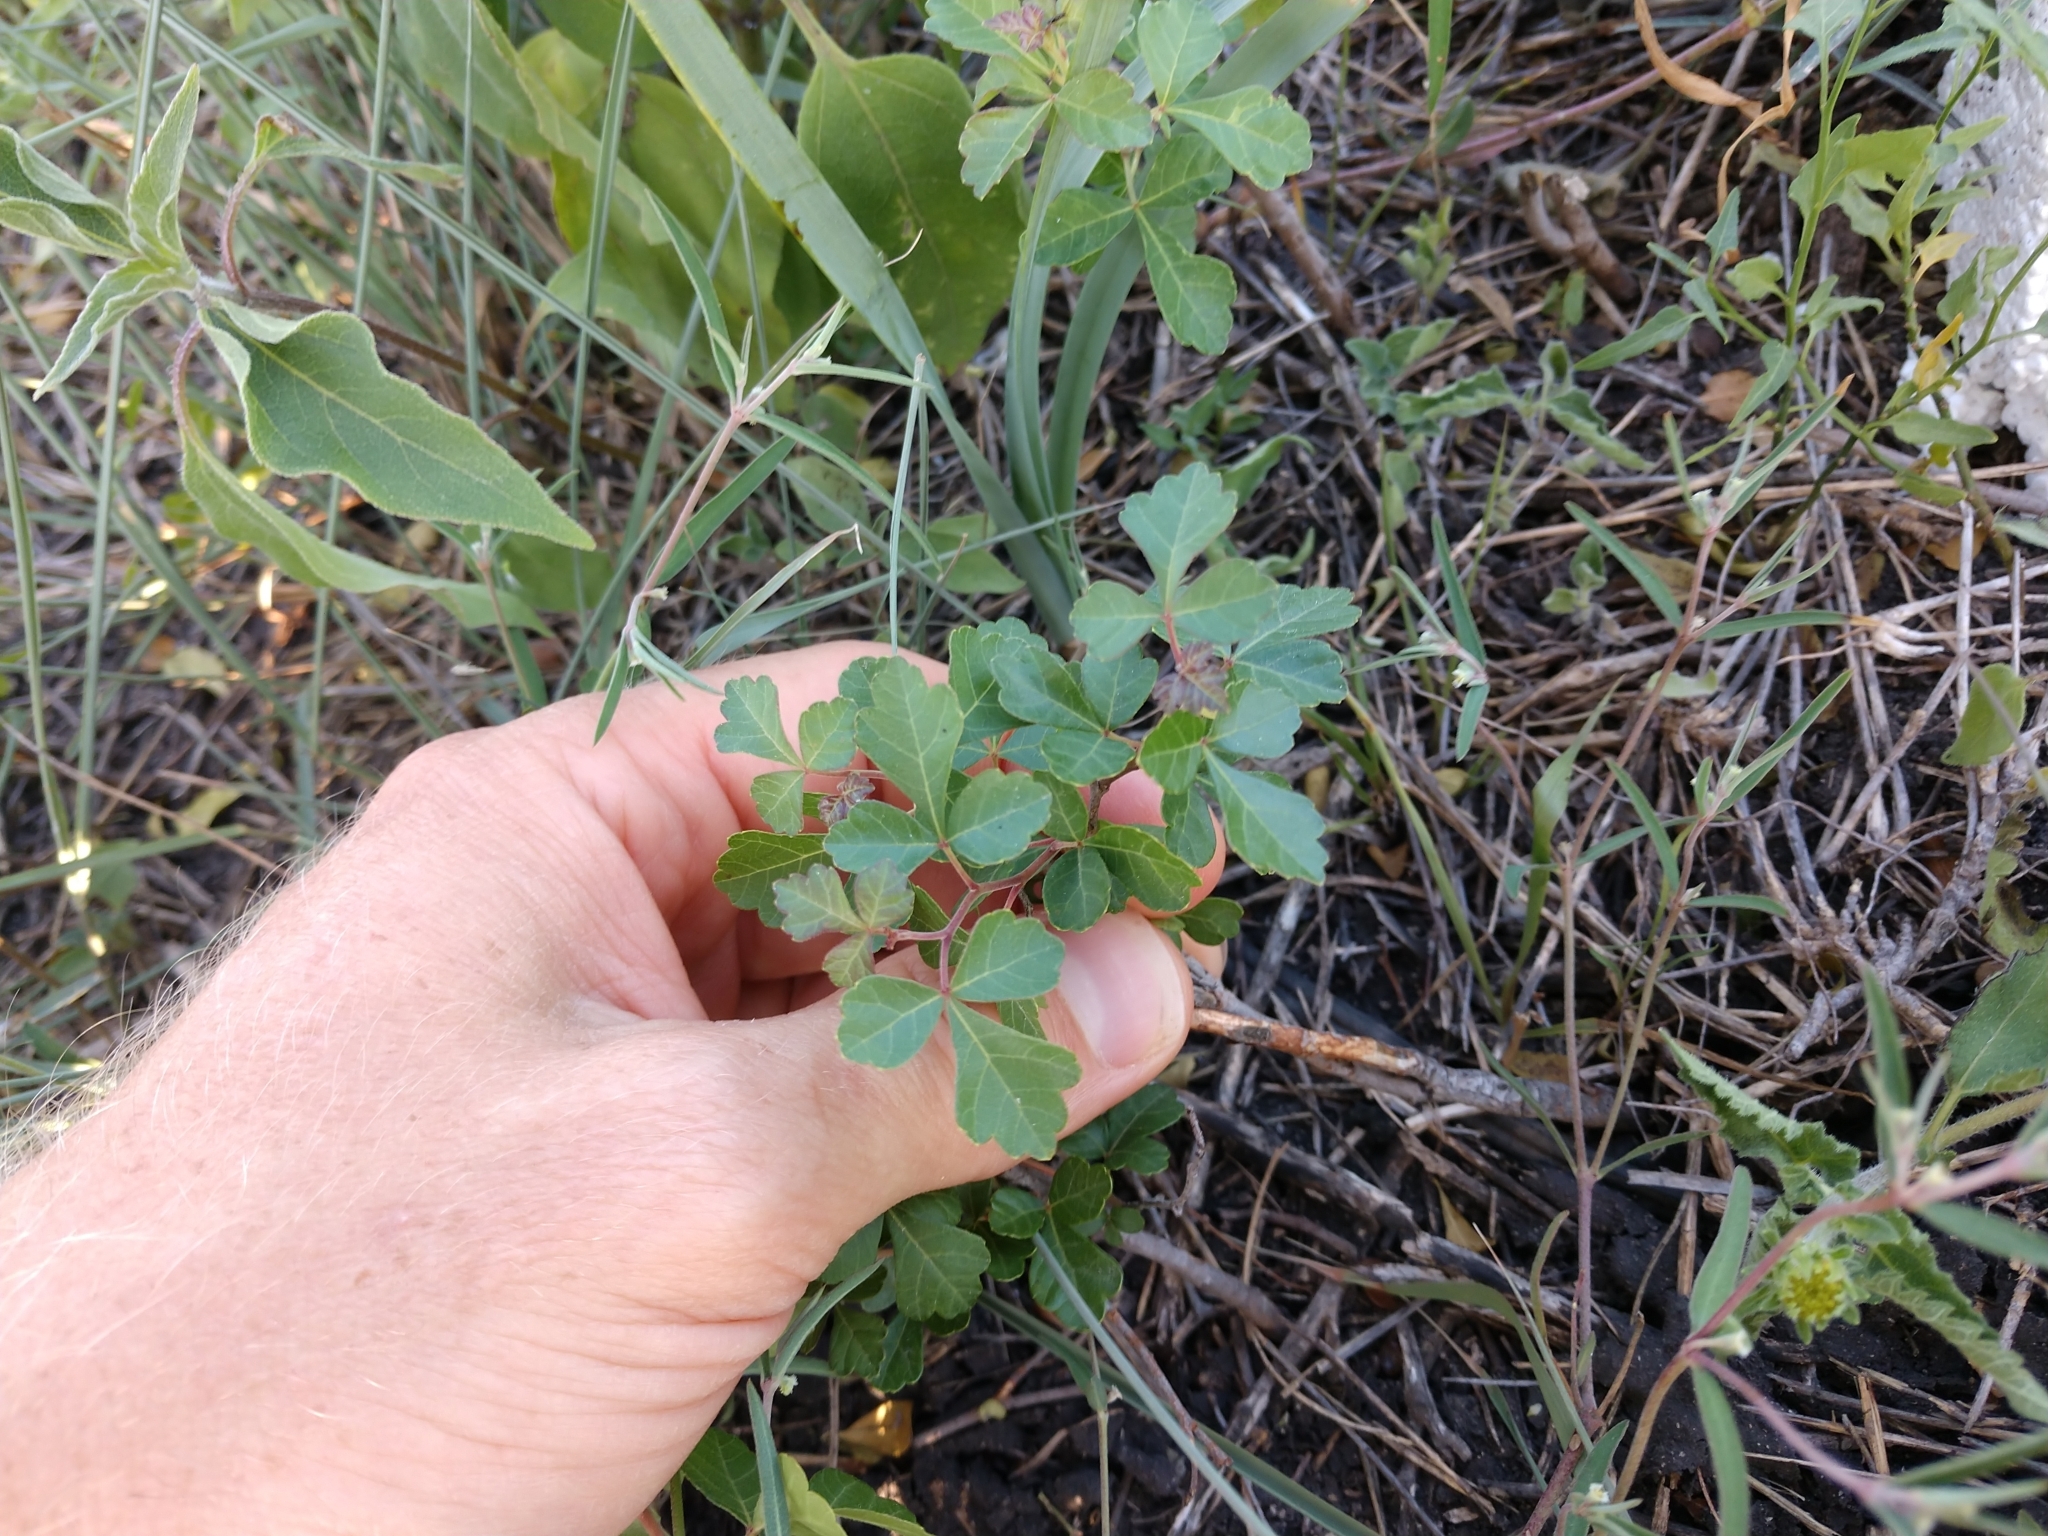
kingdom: Plantae
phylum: Tracheophyta
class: Magnoliopsida
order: Sapindales
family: Anacardiaceae
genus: Rhus
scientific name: Rhus aromatica
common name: Aromatic sumac
